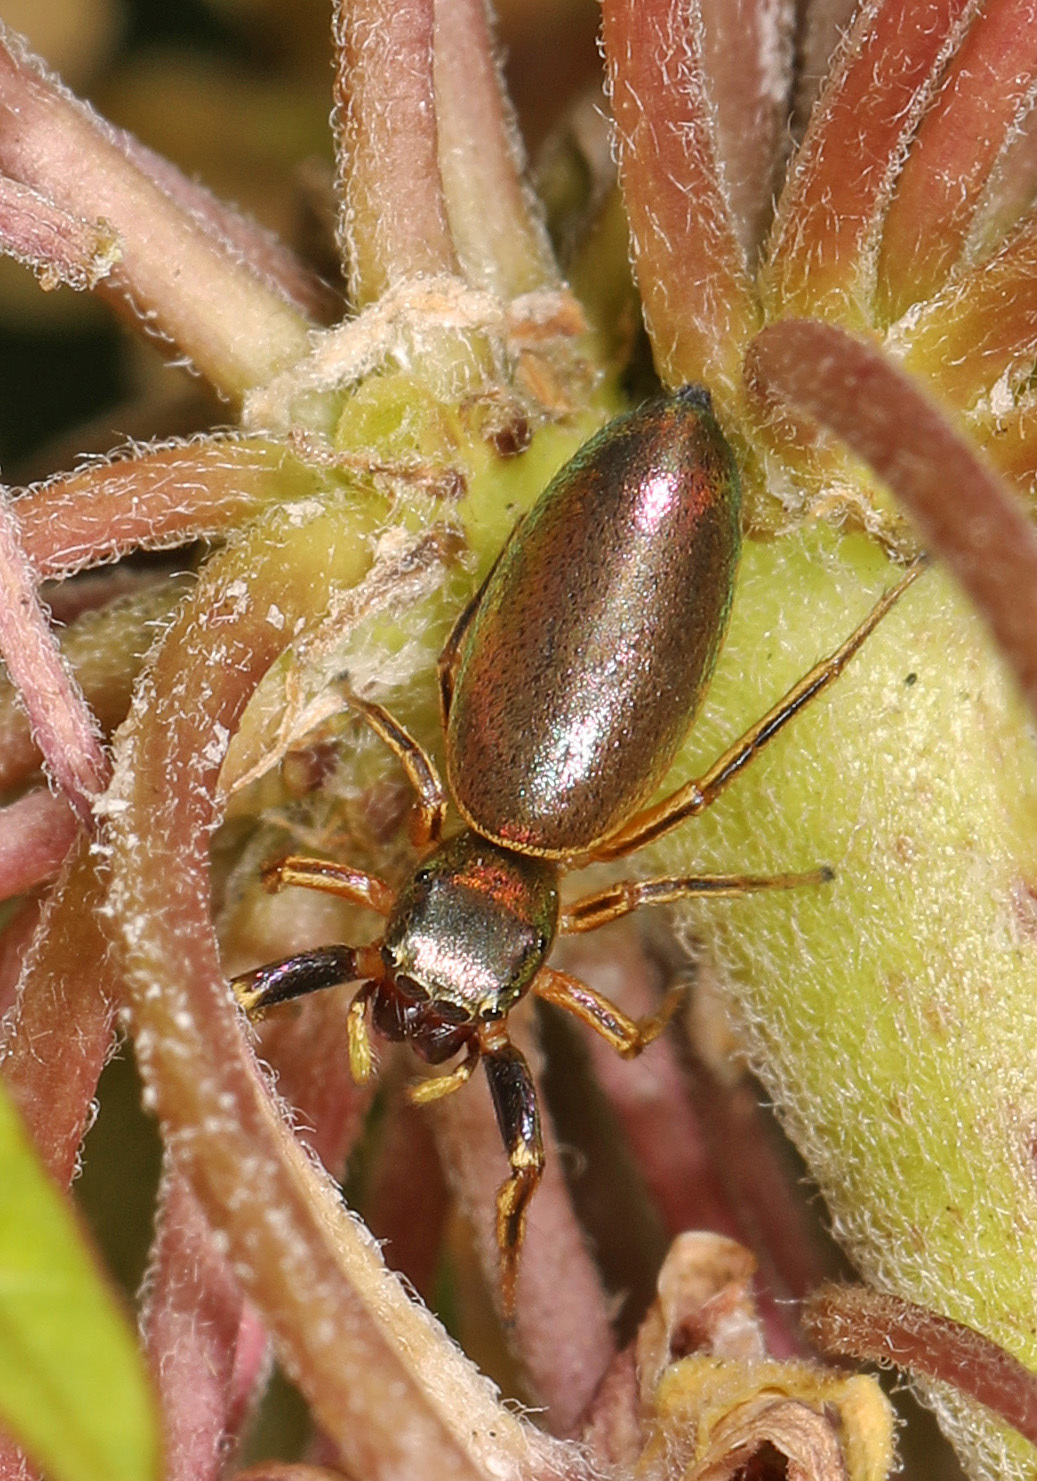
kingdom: Animalia
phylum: Arthropoda
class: Arachnida
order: Araneae
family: Salticidae
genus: Tutelina
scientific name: Tutelina elegans
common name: Thin-spined jumping spider
